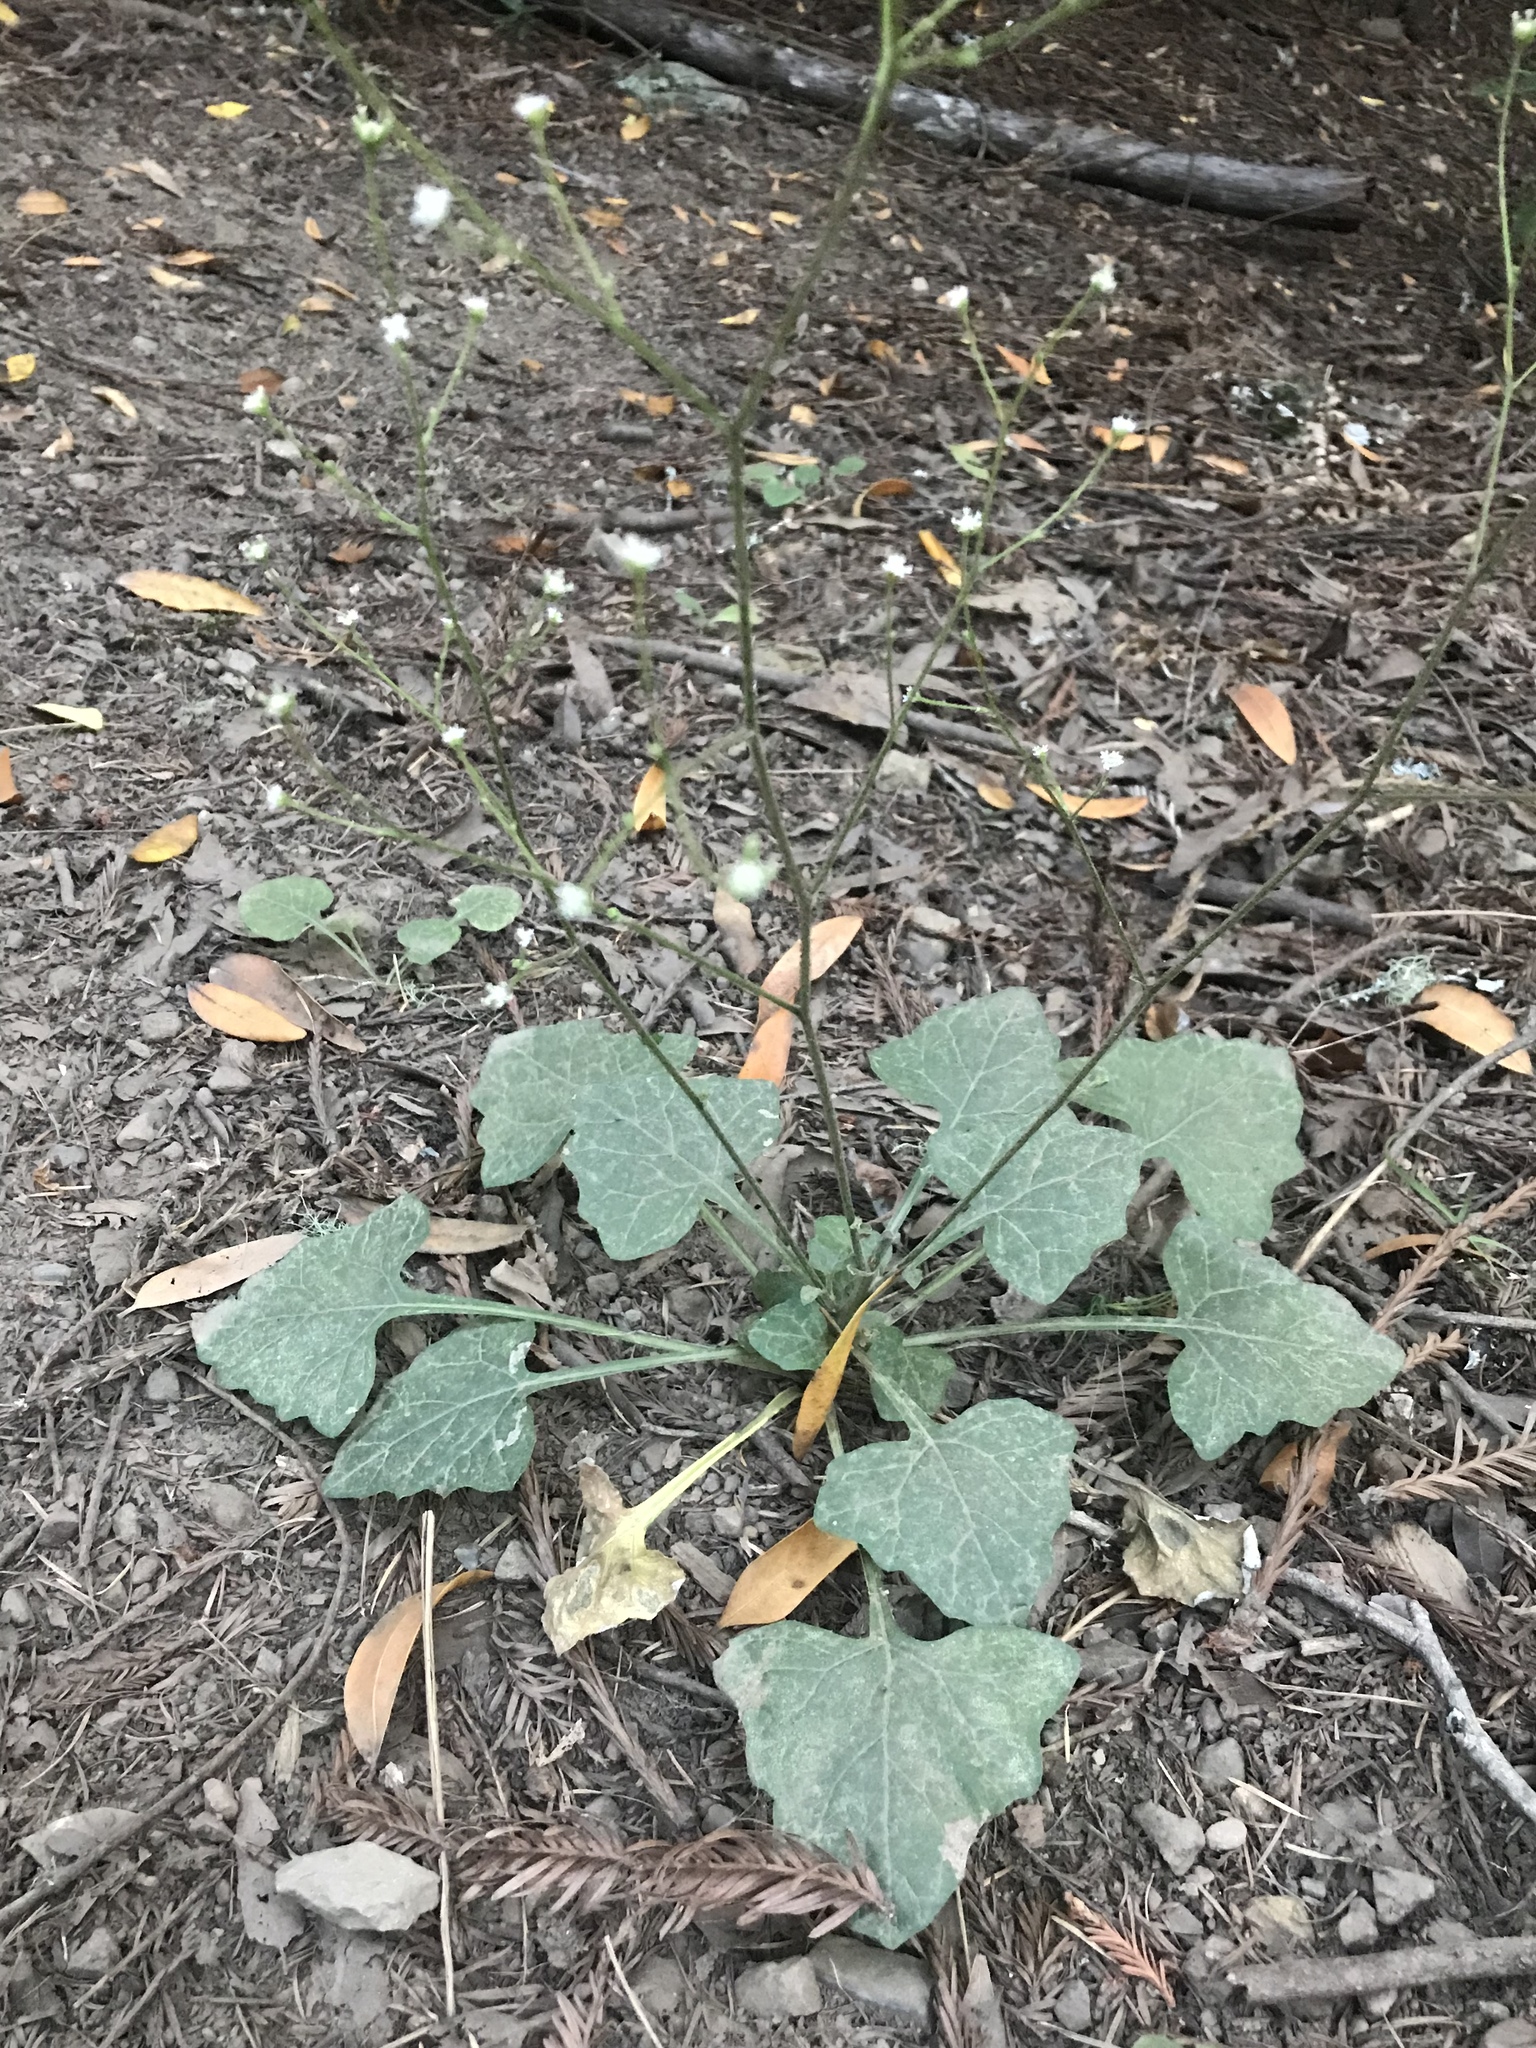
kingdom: Plantae
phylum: Tracheophyta
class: Magnoliopsida
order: Asterales
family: Asteraceae
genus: Adenocaulon
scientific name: Adenocaulon bicolor
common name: Trailplant
